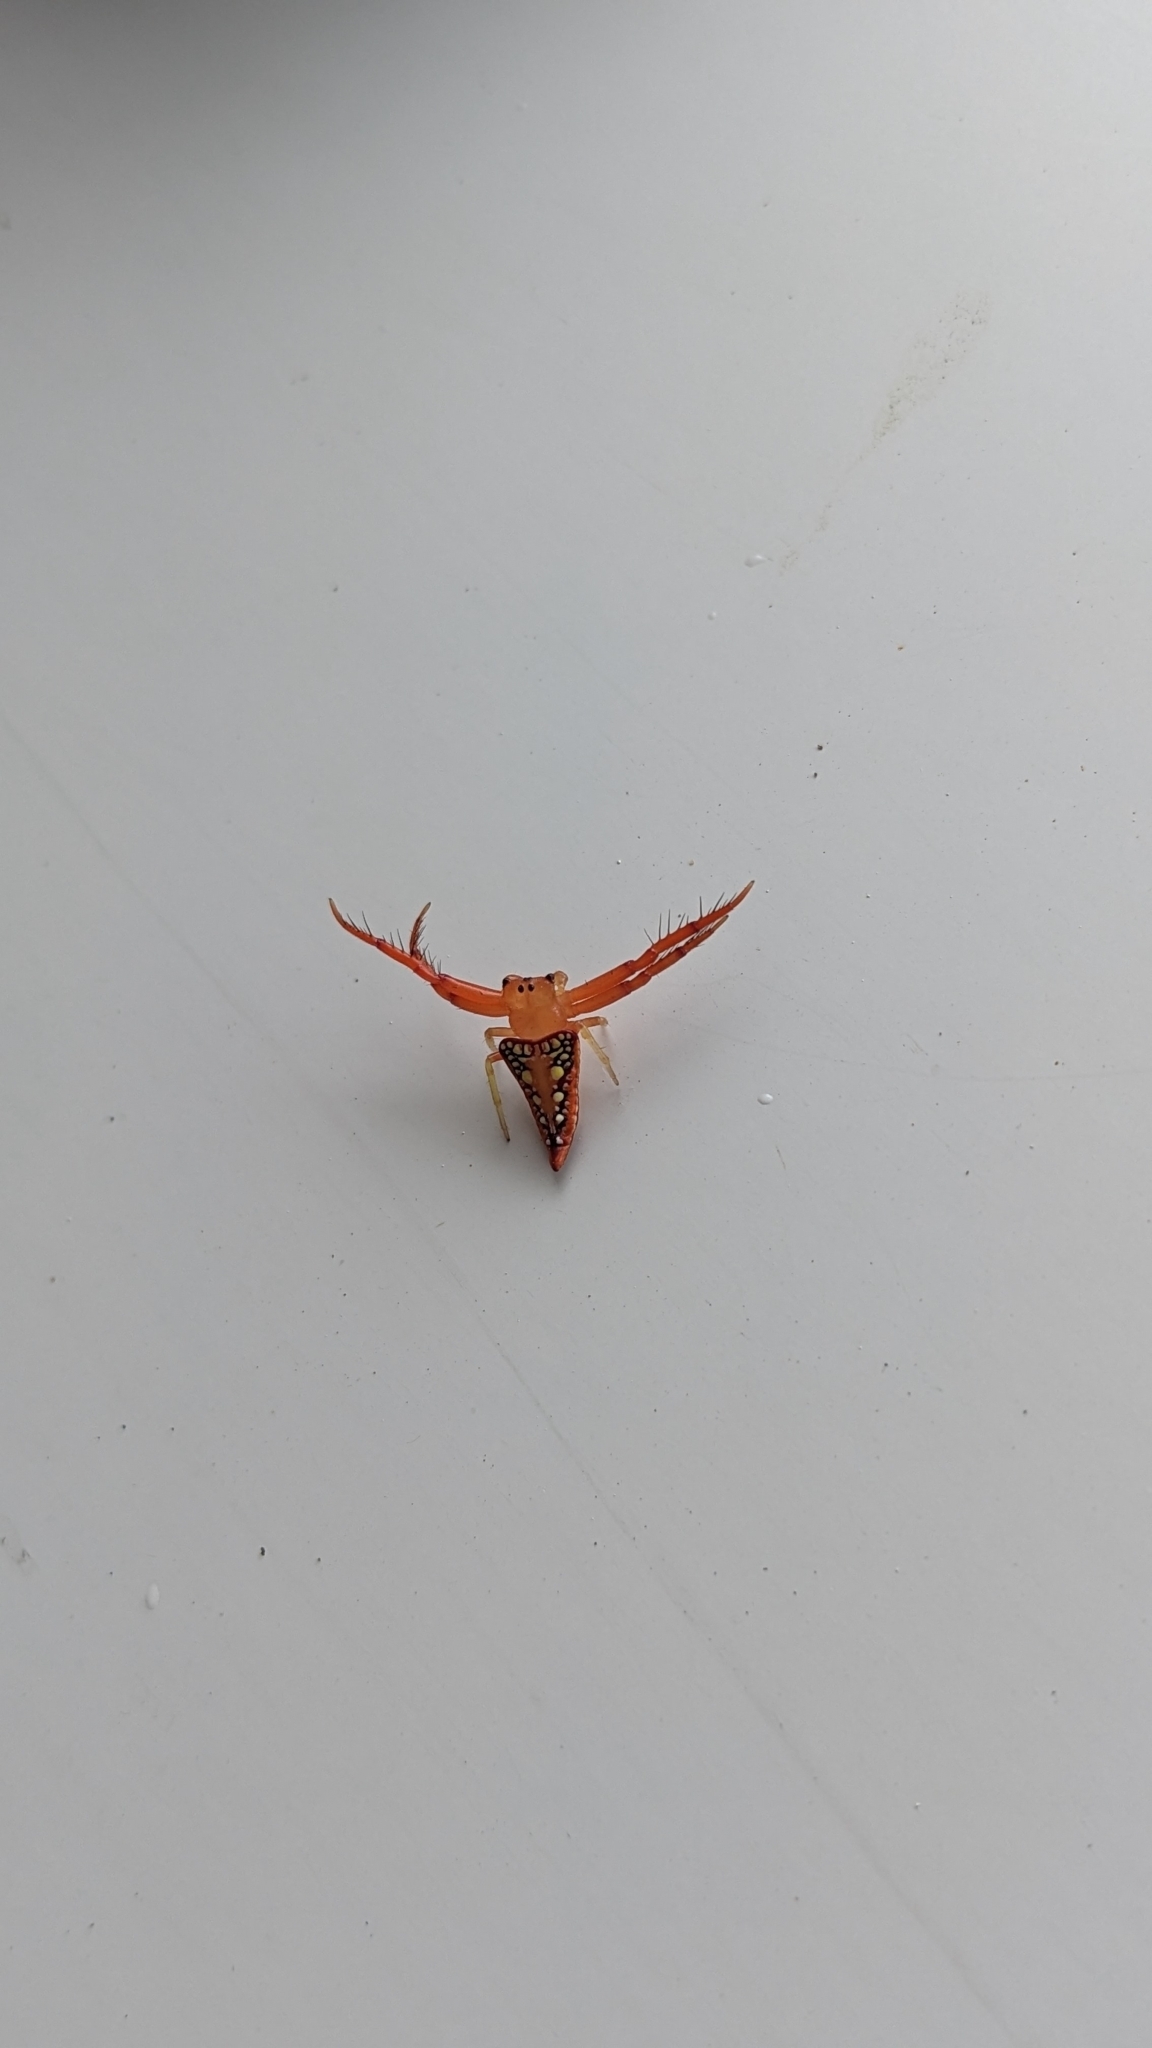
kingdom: Animalia
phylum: Arthropoda
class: Arachnida
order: Araneae
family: Arkyidae
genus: Arkys
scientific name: Arkys walckenaeri
